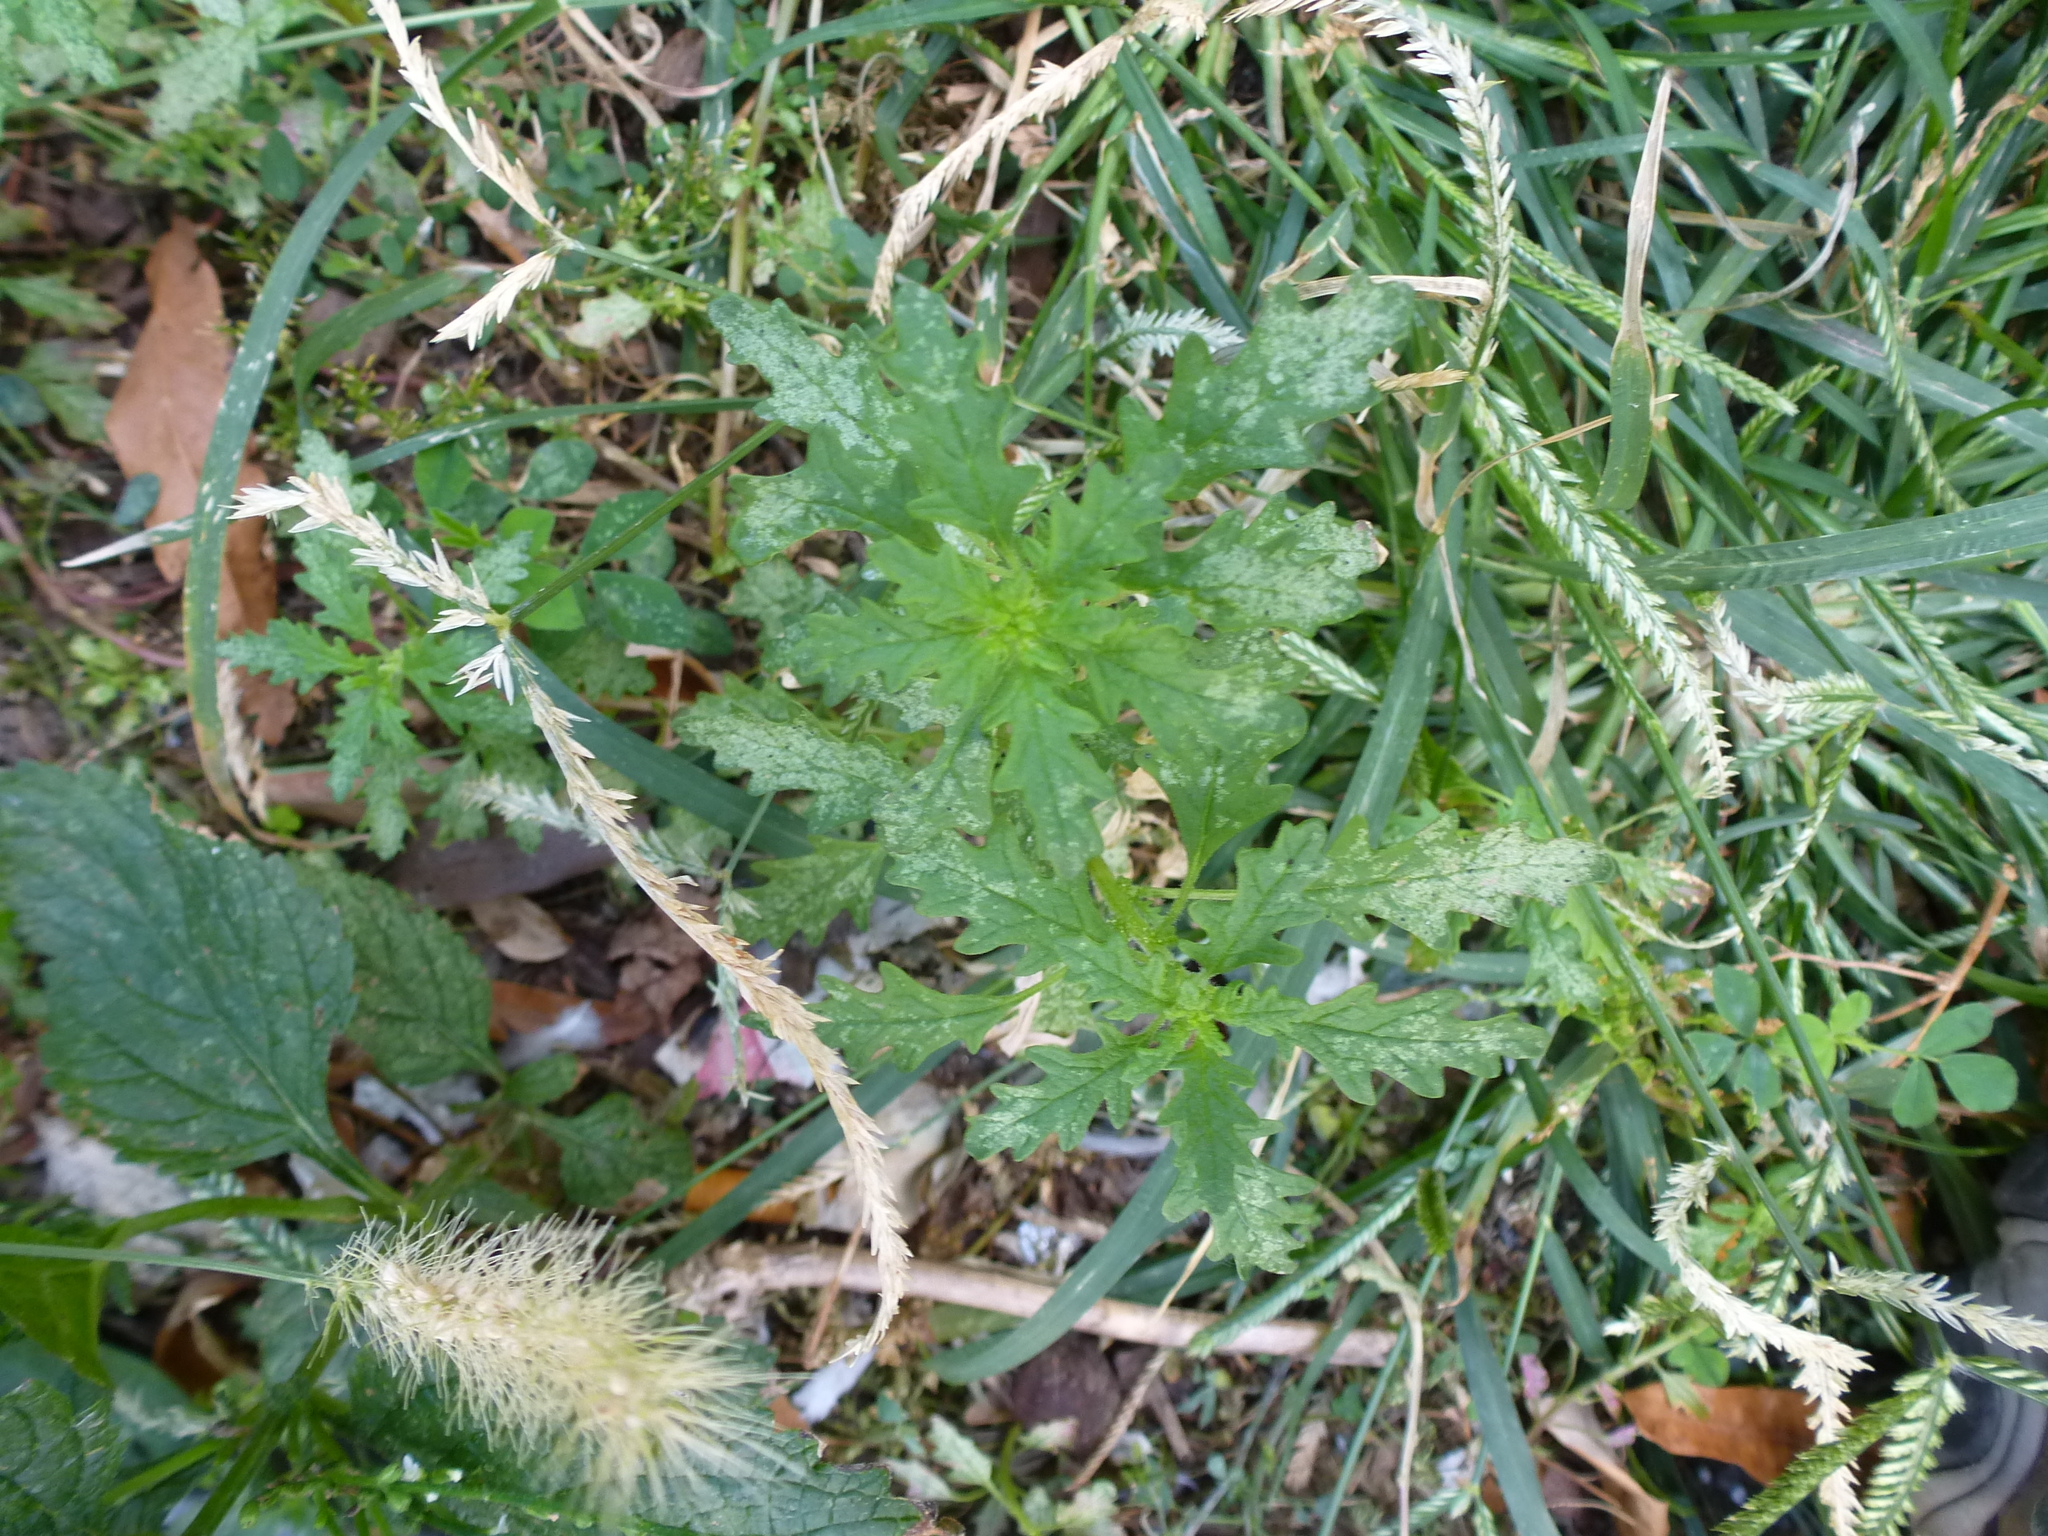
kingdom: Plantae
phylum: Tracheophyta
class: Magnoliopsida
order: Caryophyllales
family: Amaranthaceae
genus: Dysphania
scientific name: Dysphania pumilio
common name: Clammy goosefoot
